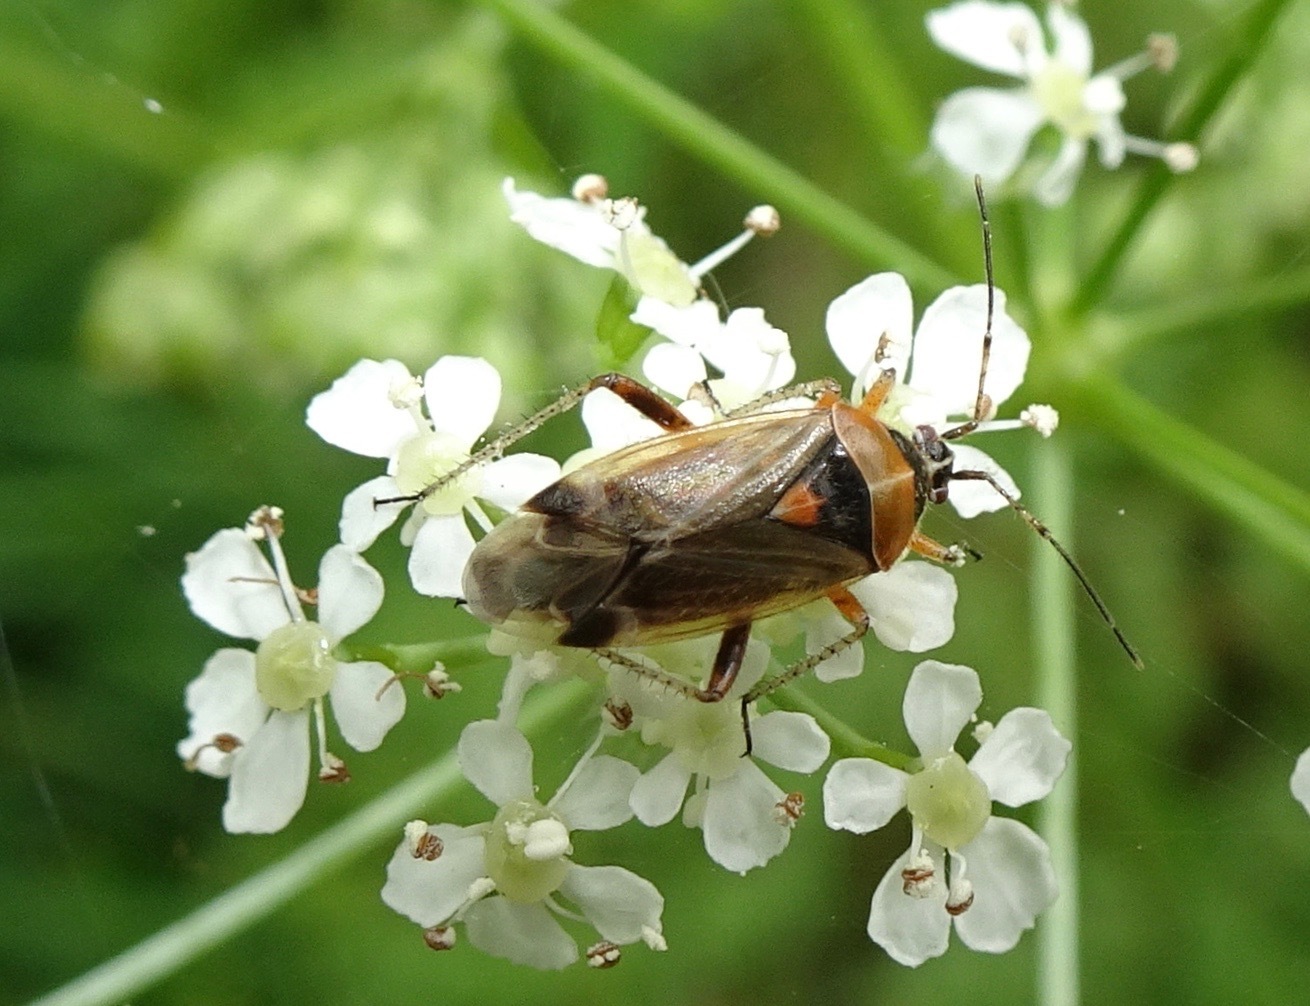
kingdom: Animalia
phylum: Arthropoda
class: Insecta
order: Hemiptera
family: Miridae
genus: Harpocera
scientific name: Harpocera thoracica
